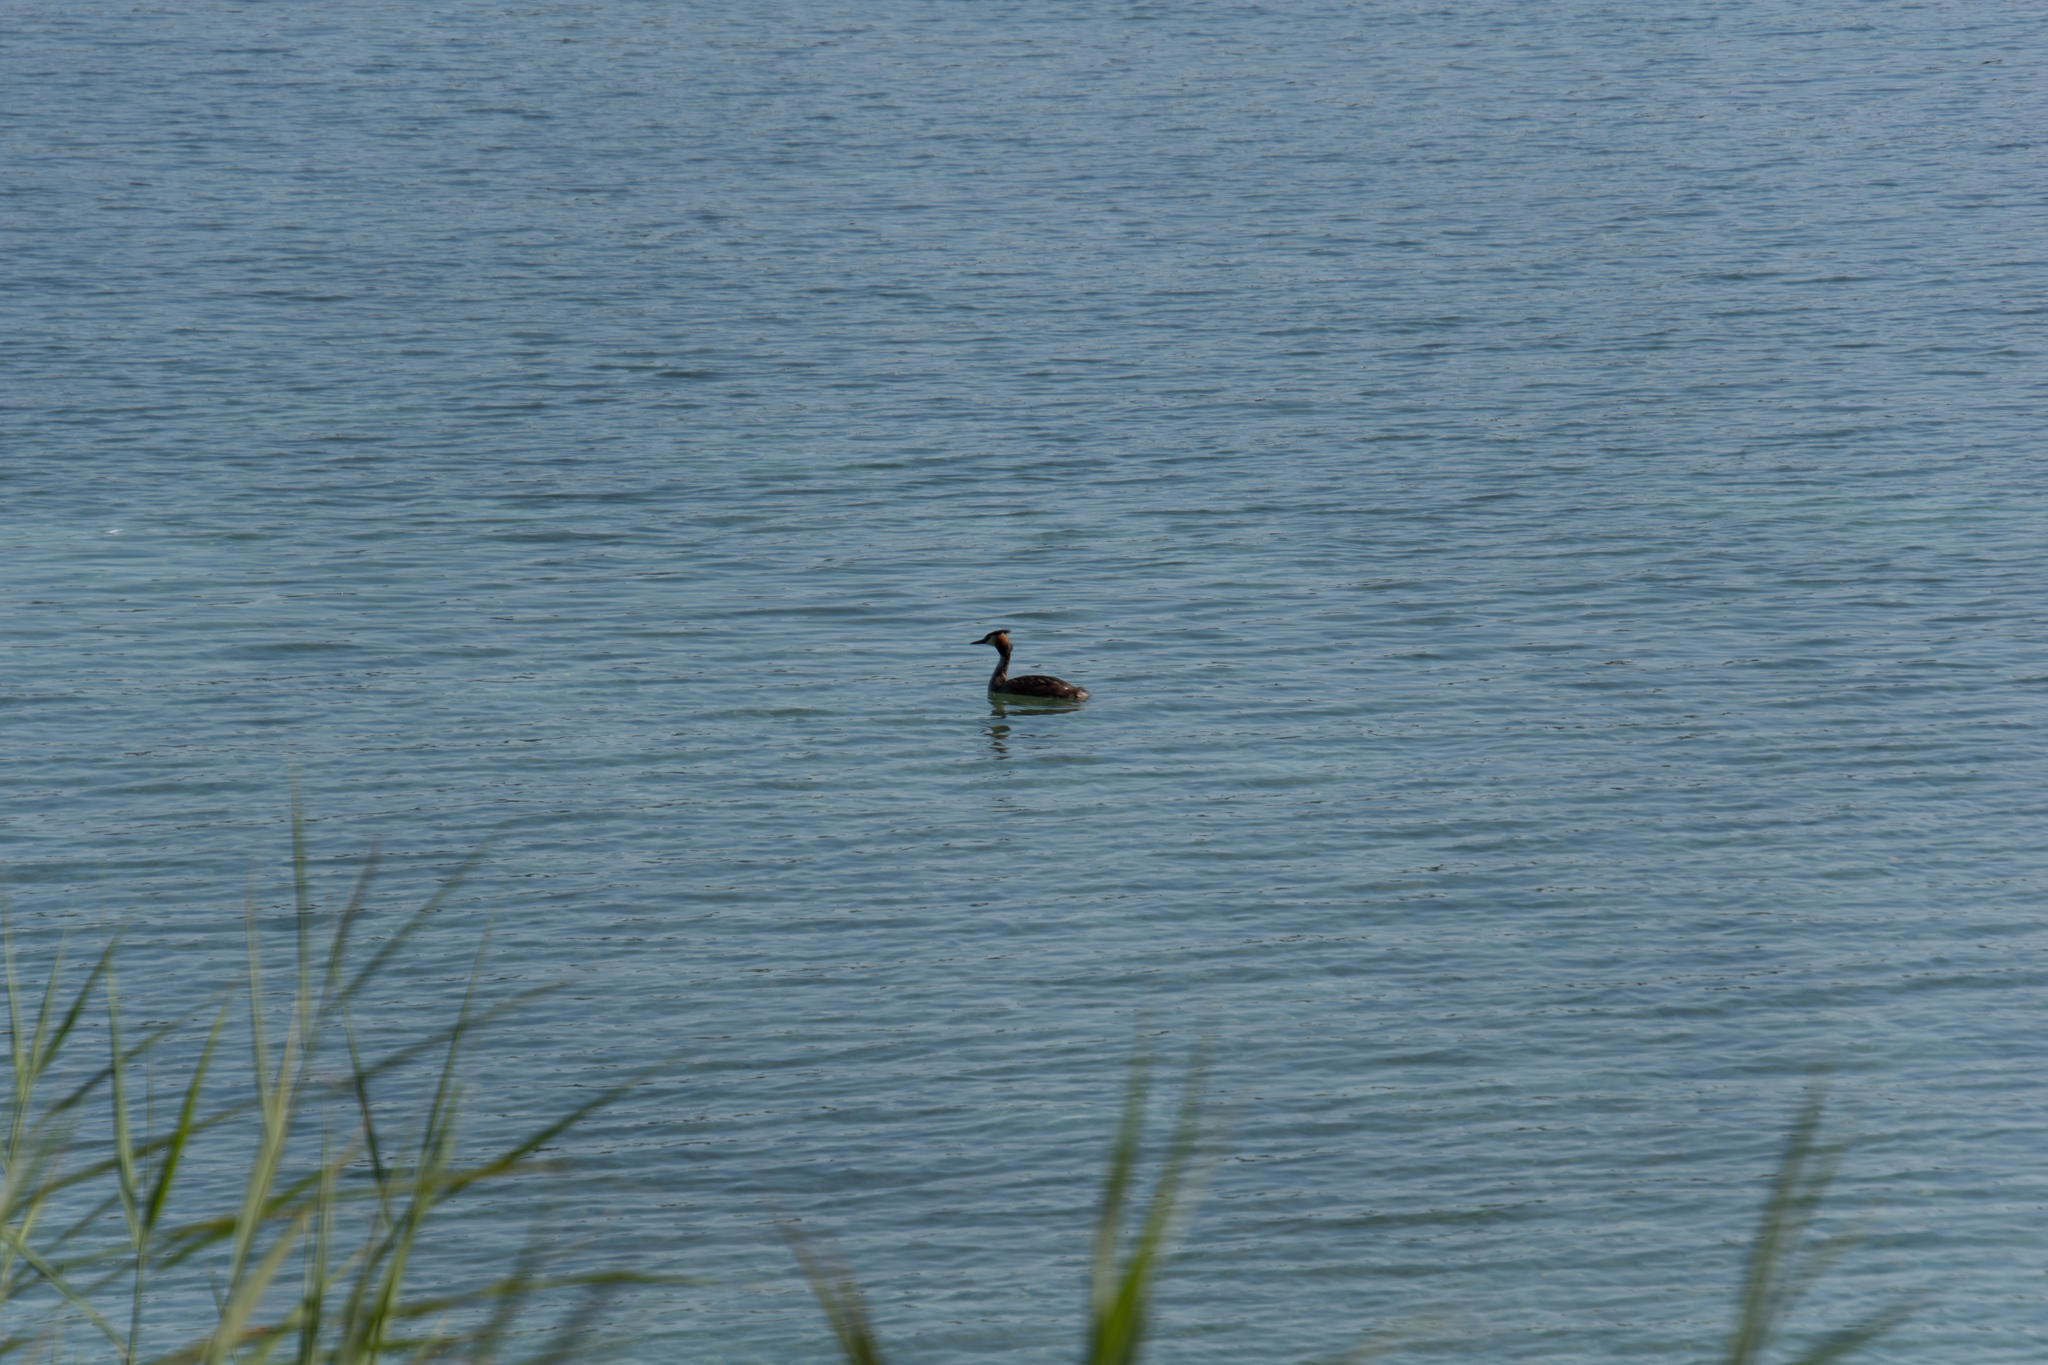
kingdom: Animalia
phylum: Chordata
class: Aves
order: Podicipediformes
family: Podicipedidae
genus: Podiceps
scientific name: Podiceps cristatus
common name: Great crested grebe
